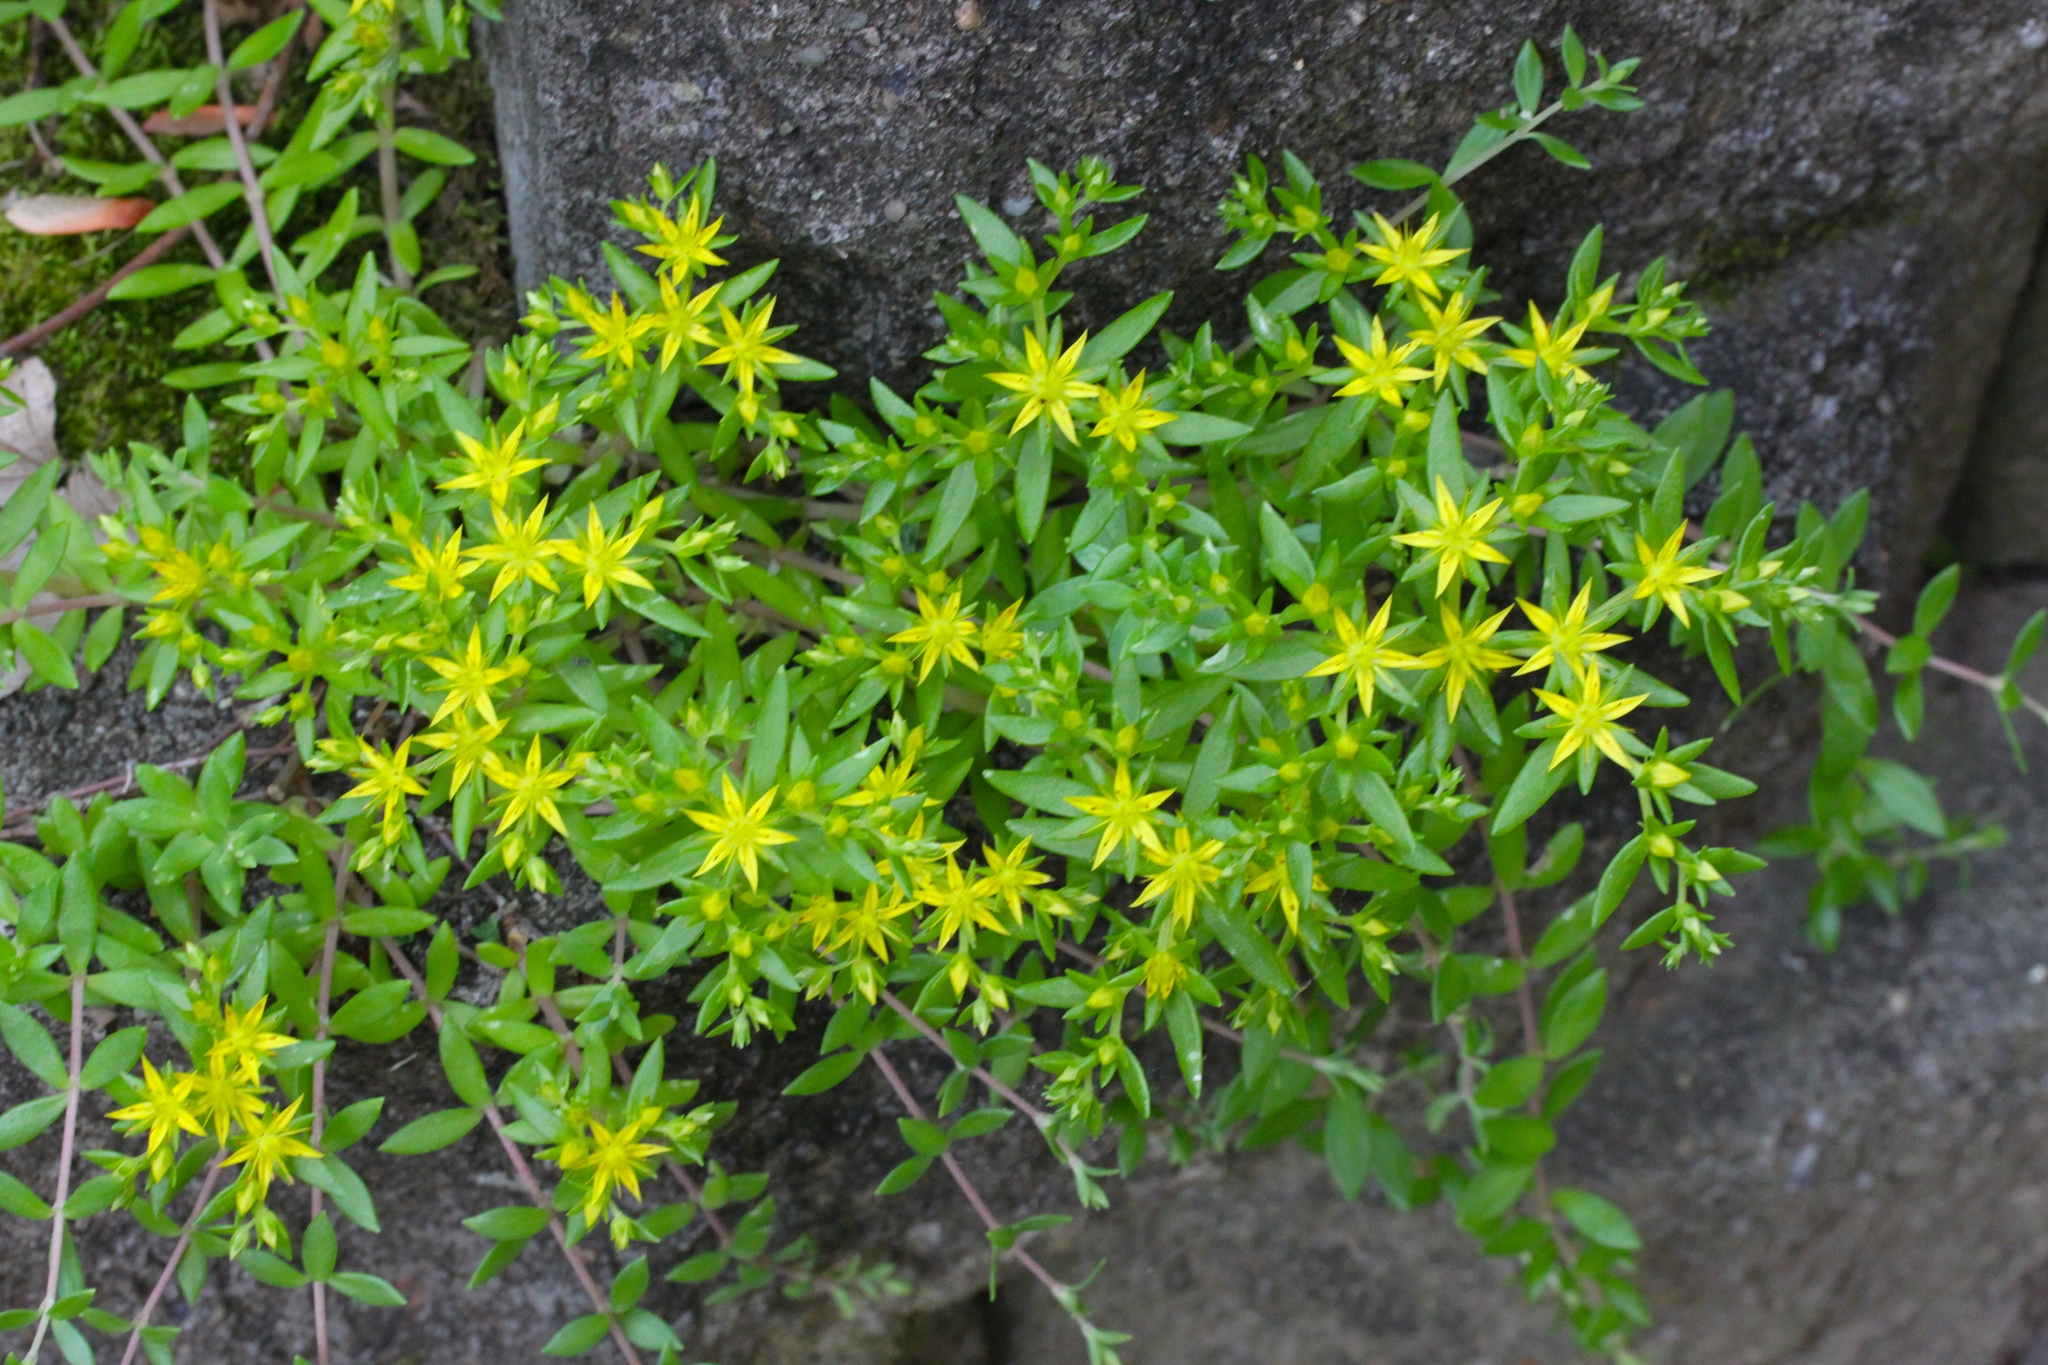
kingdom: Plantae
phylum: Tracheophyta
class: Magnoliopsida
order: Saxifragales
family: Crassulaceae
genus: Sedum
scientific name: Sedum sarmentosum
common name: Stringy stonecrop
